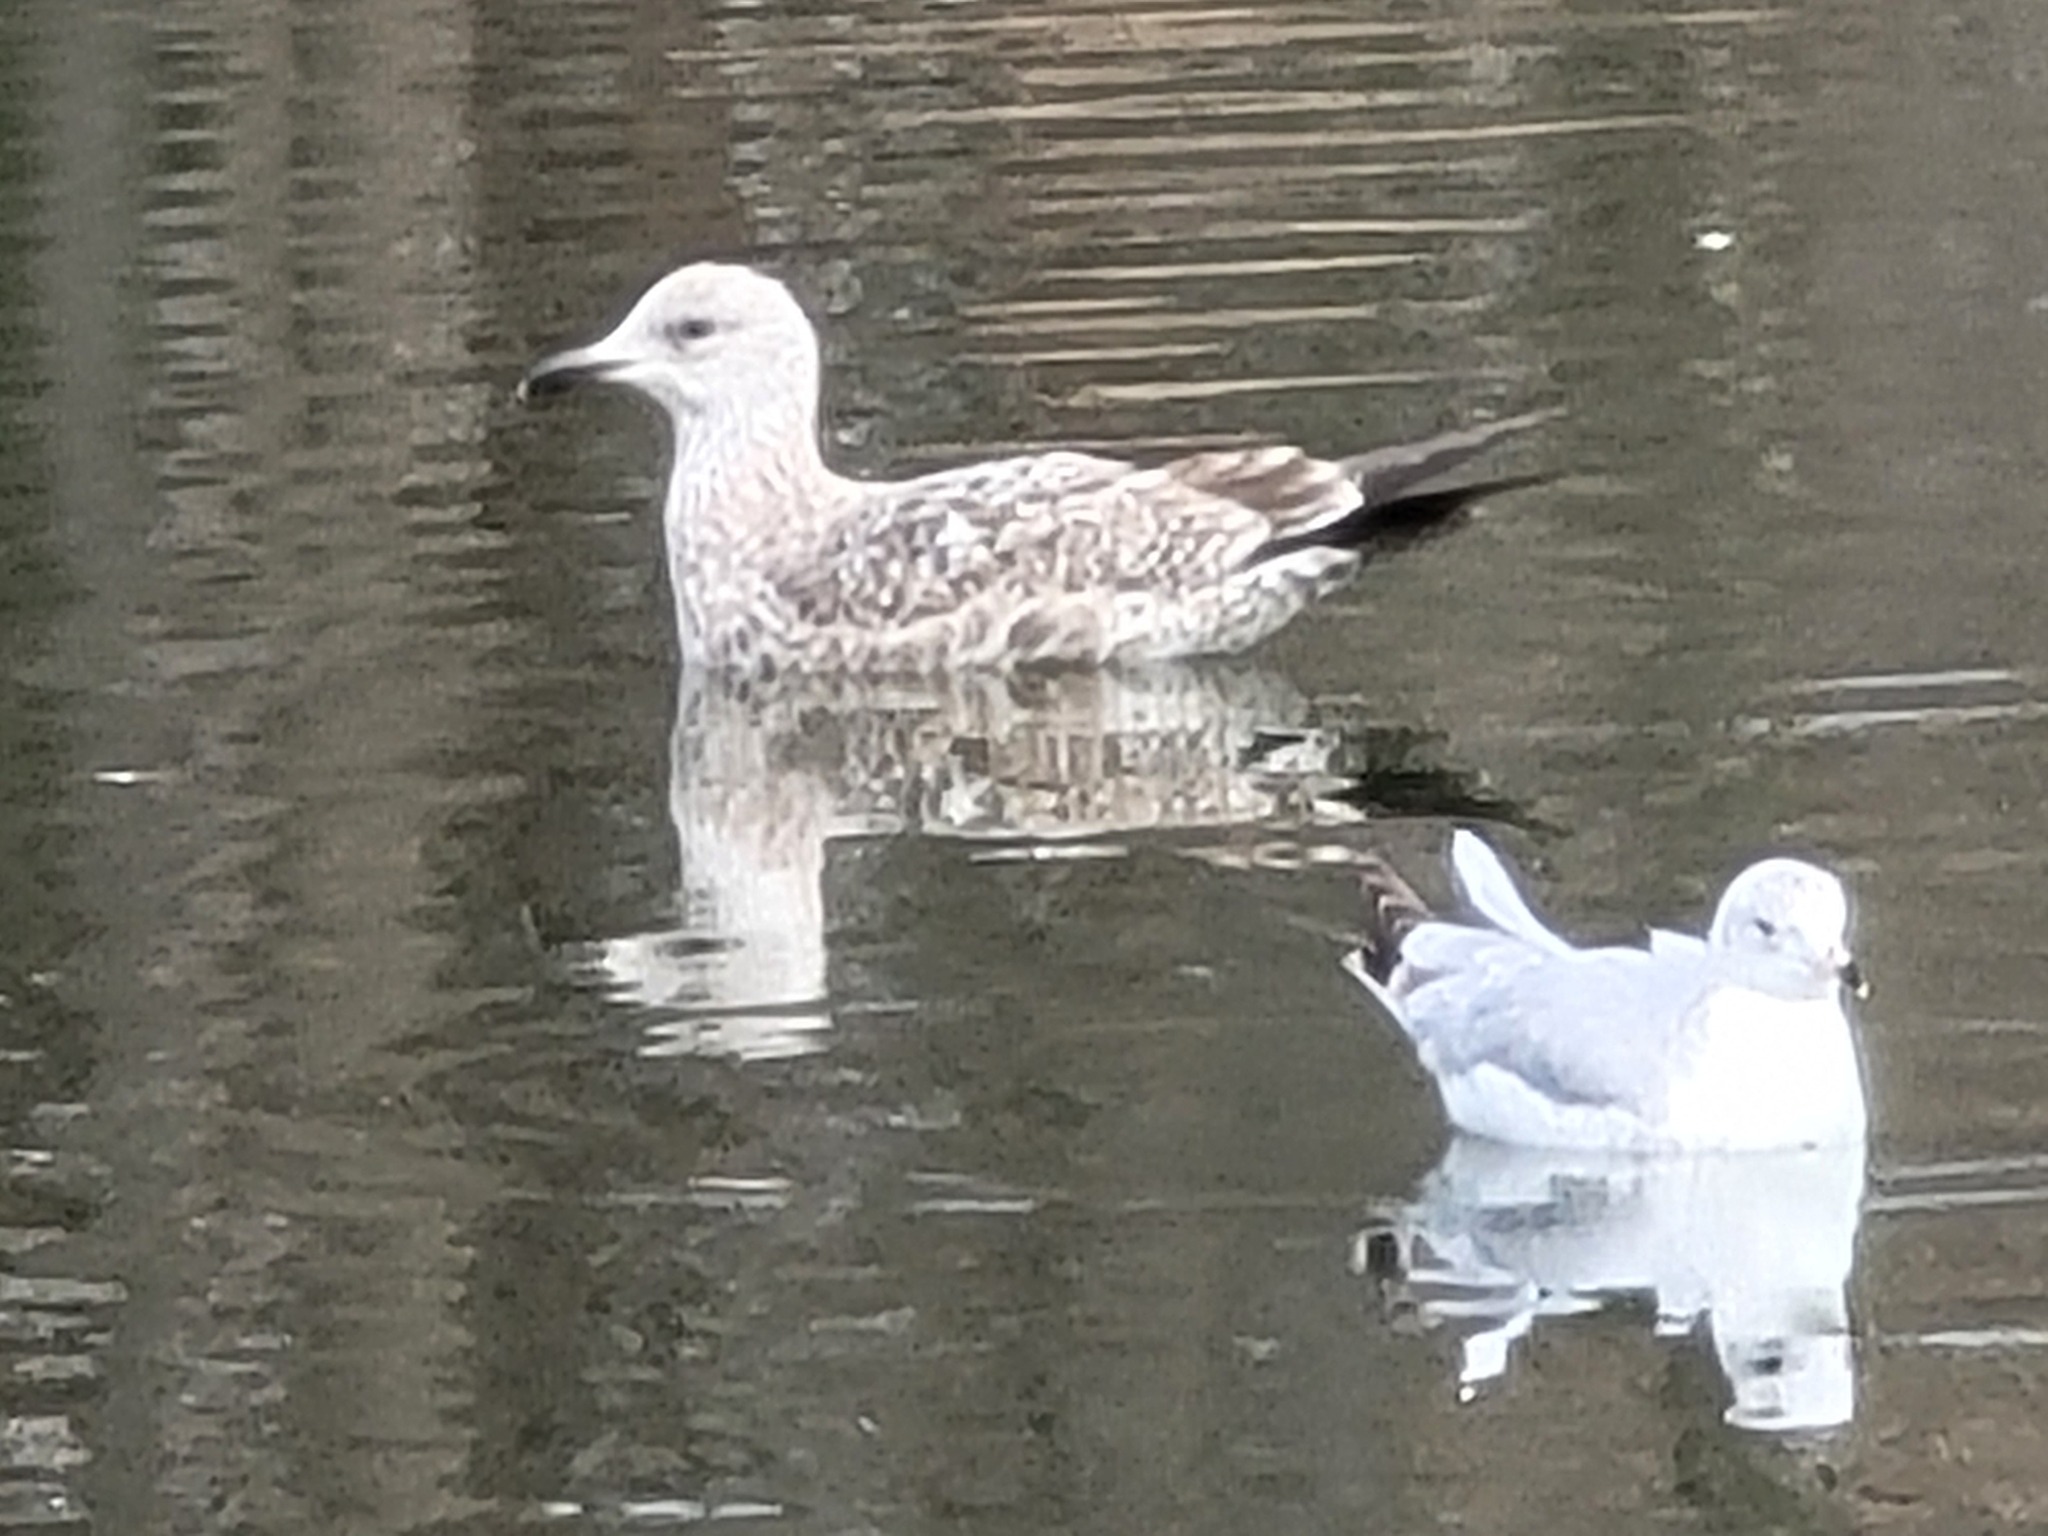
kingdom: Animalia
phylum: Chordata
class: Aves
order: Charadriiformes
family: Laridae
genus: Larus
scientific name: Larus argentatus
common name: Herring gull
